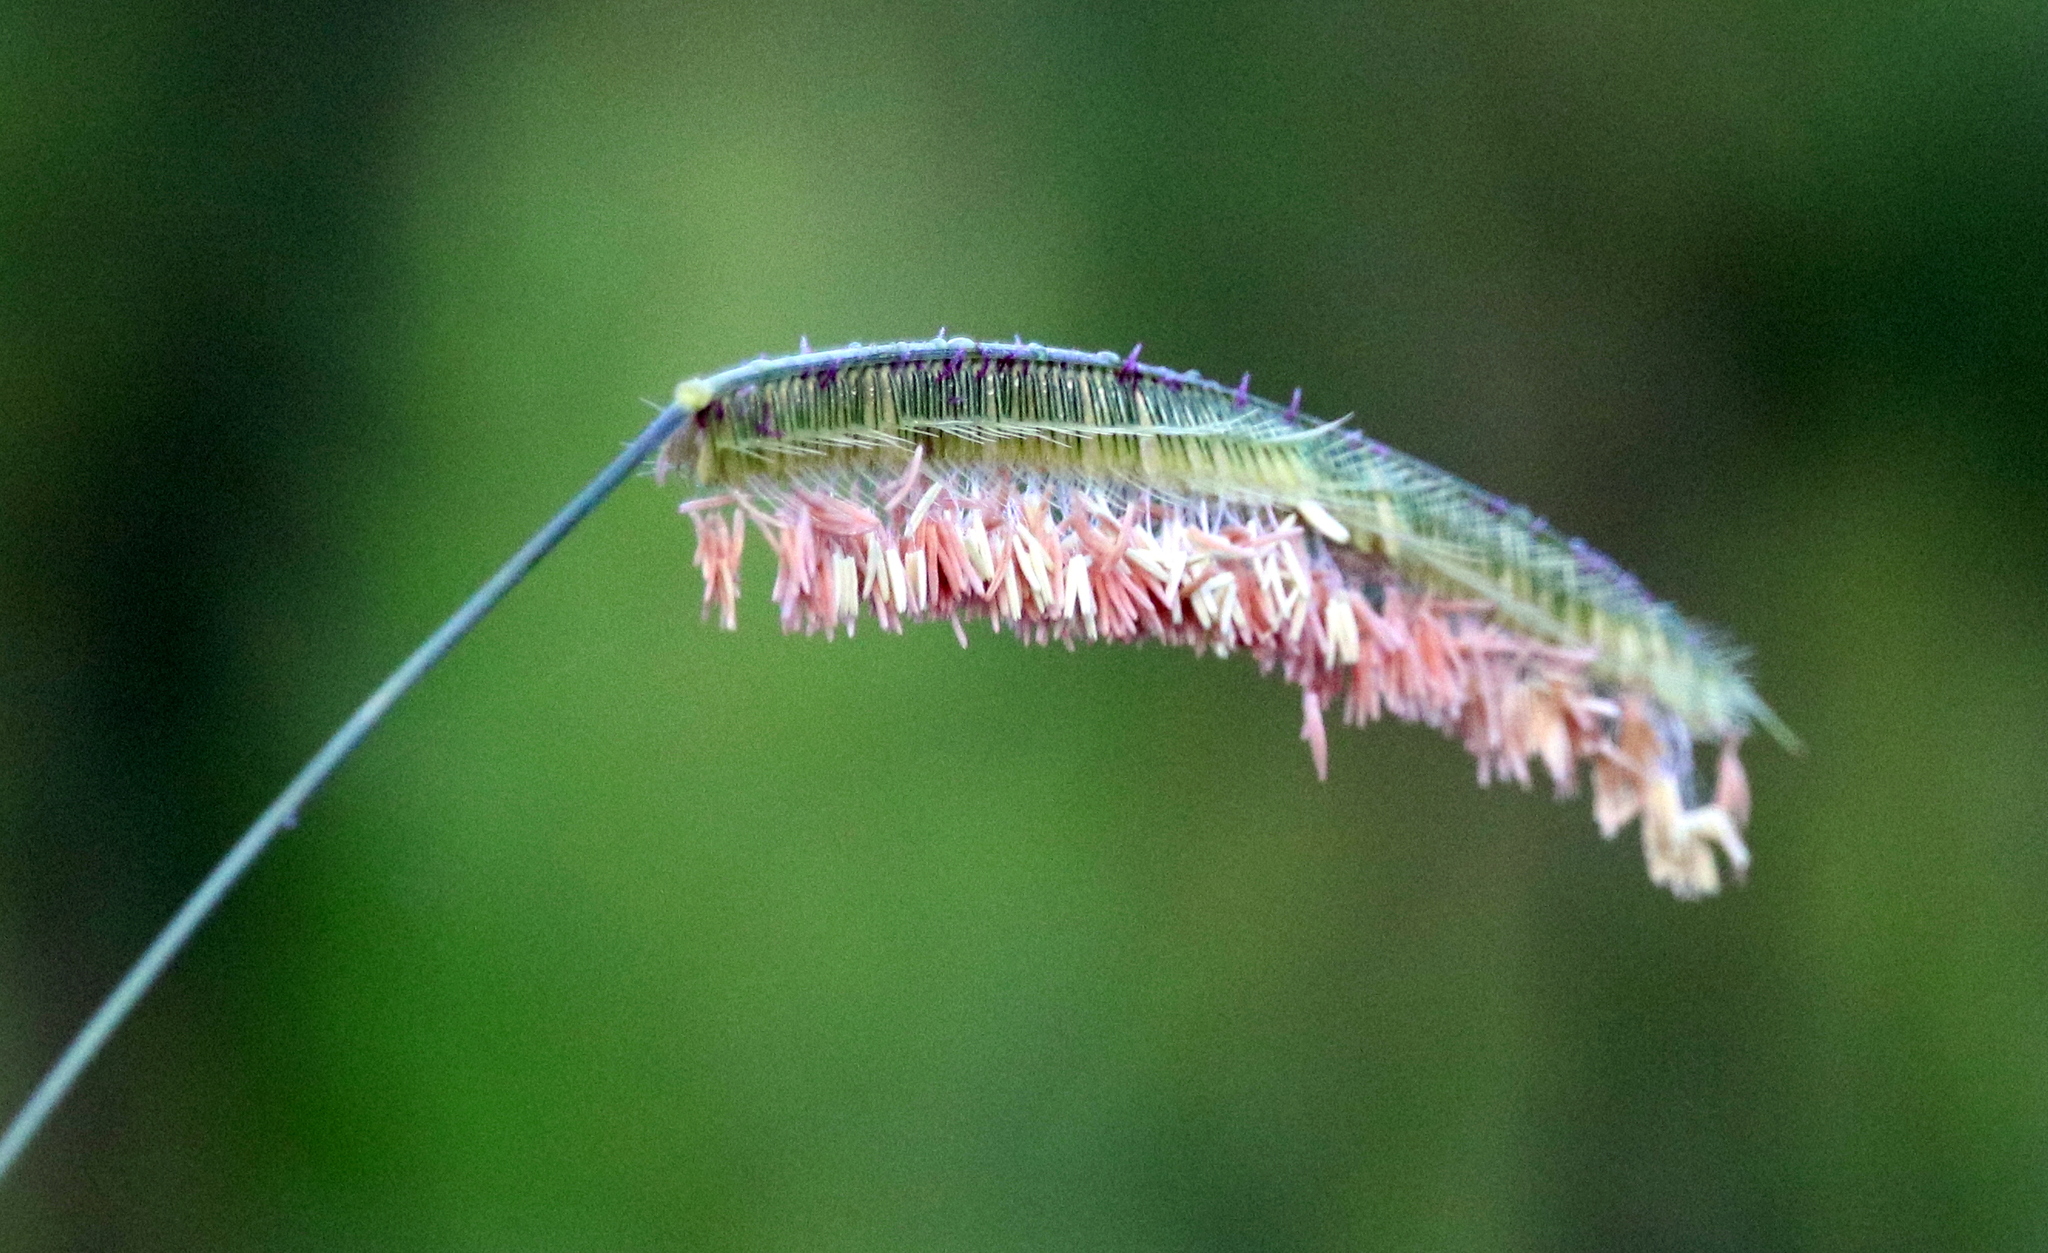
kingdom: Plantae
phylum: Tracheophyta
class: Liliopsida
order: Poales
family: Poaceae
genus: Ctenium
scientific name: Ctenium aromaticum
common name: Toothache grass
